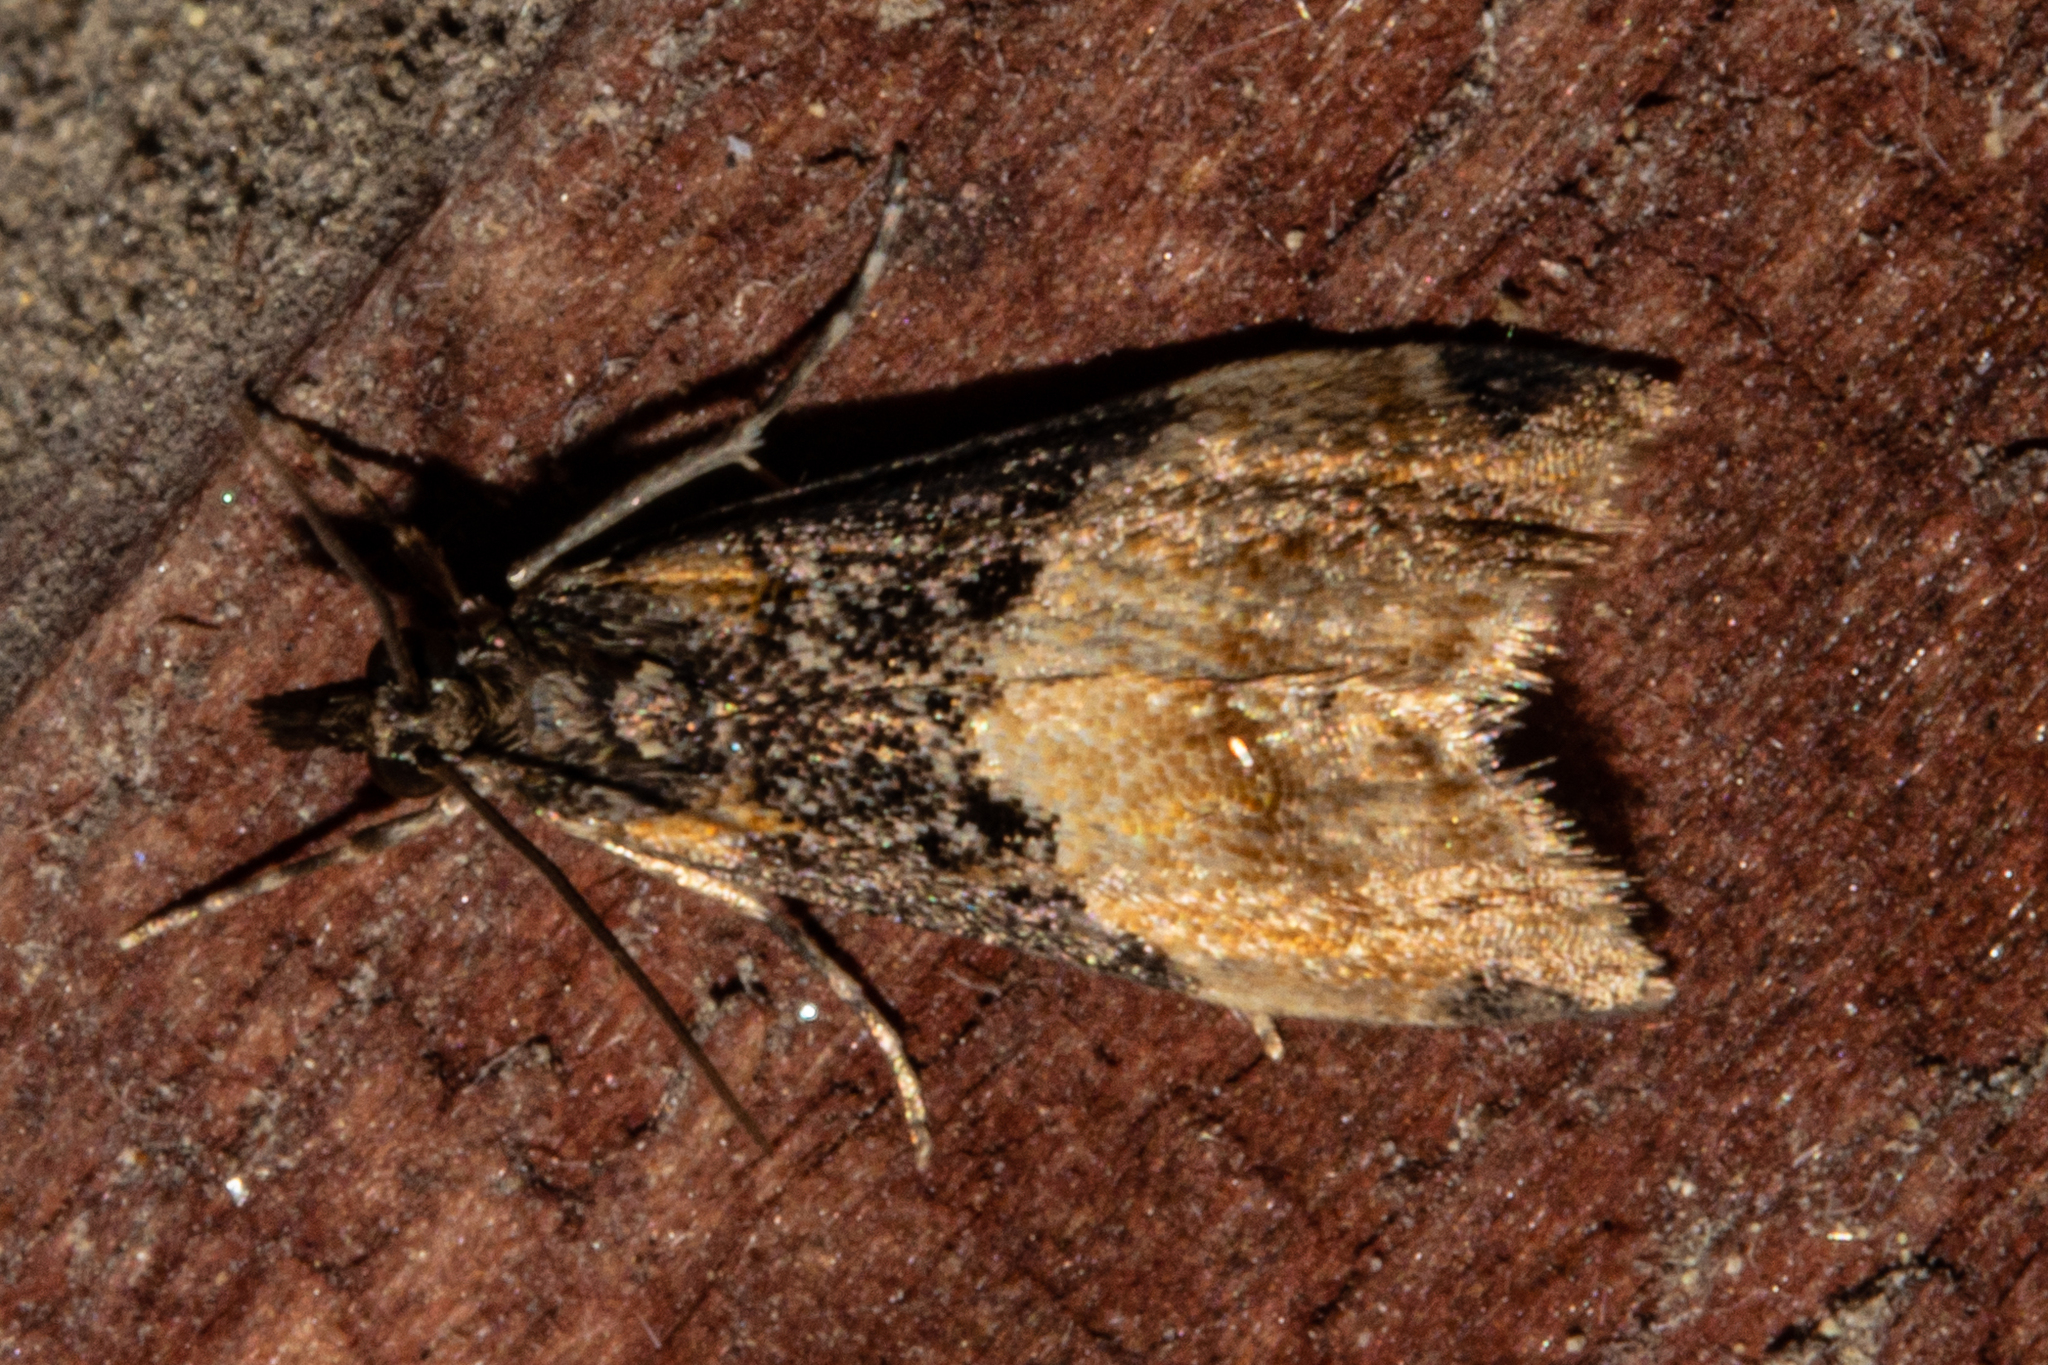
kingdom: Animalia
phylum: Arthropoda
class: Insecta
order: Lepidoptera
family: Crambidae
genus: Eudonia
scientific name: Eudonia chlamydota
